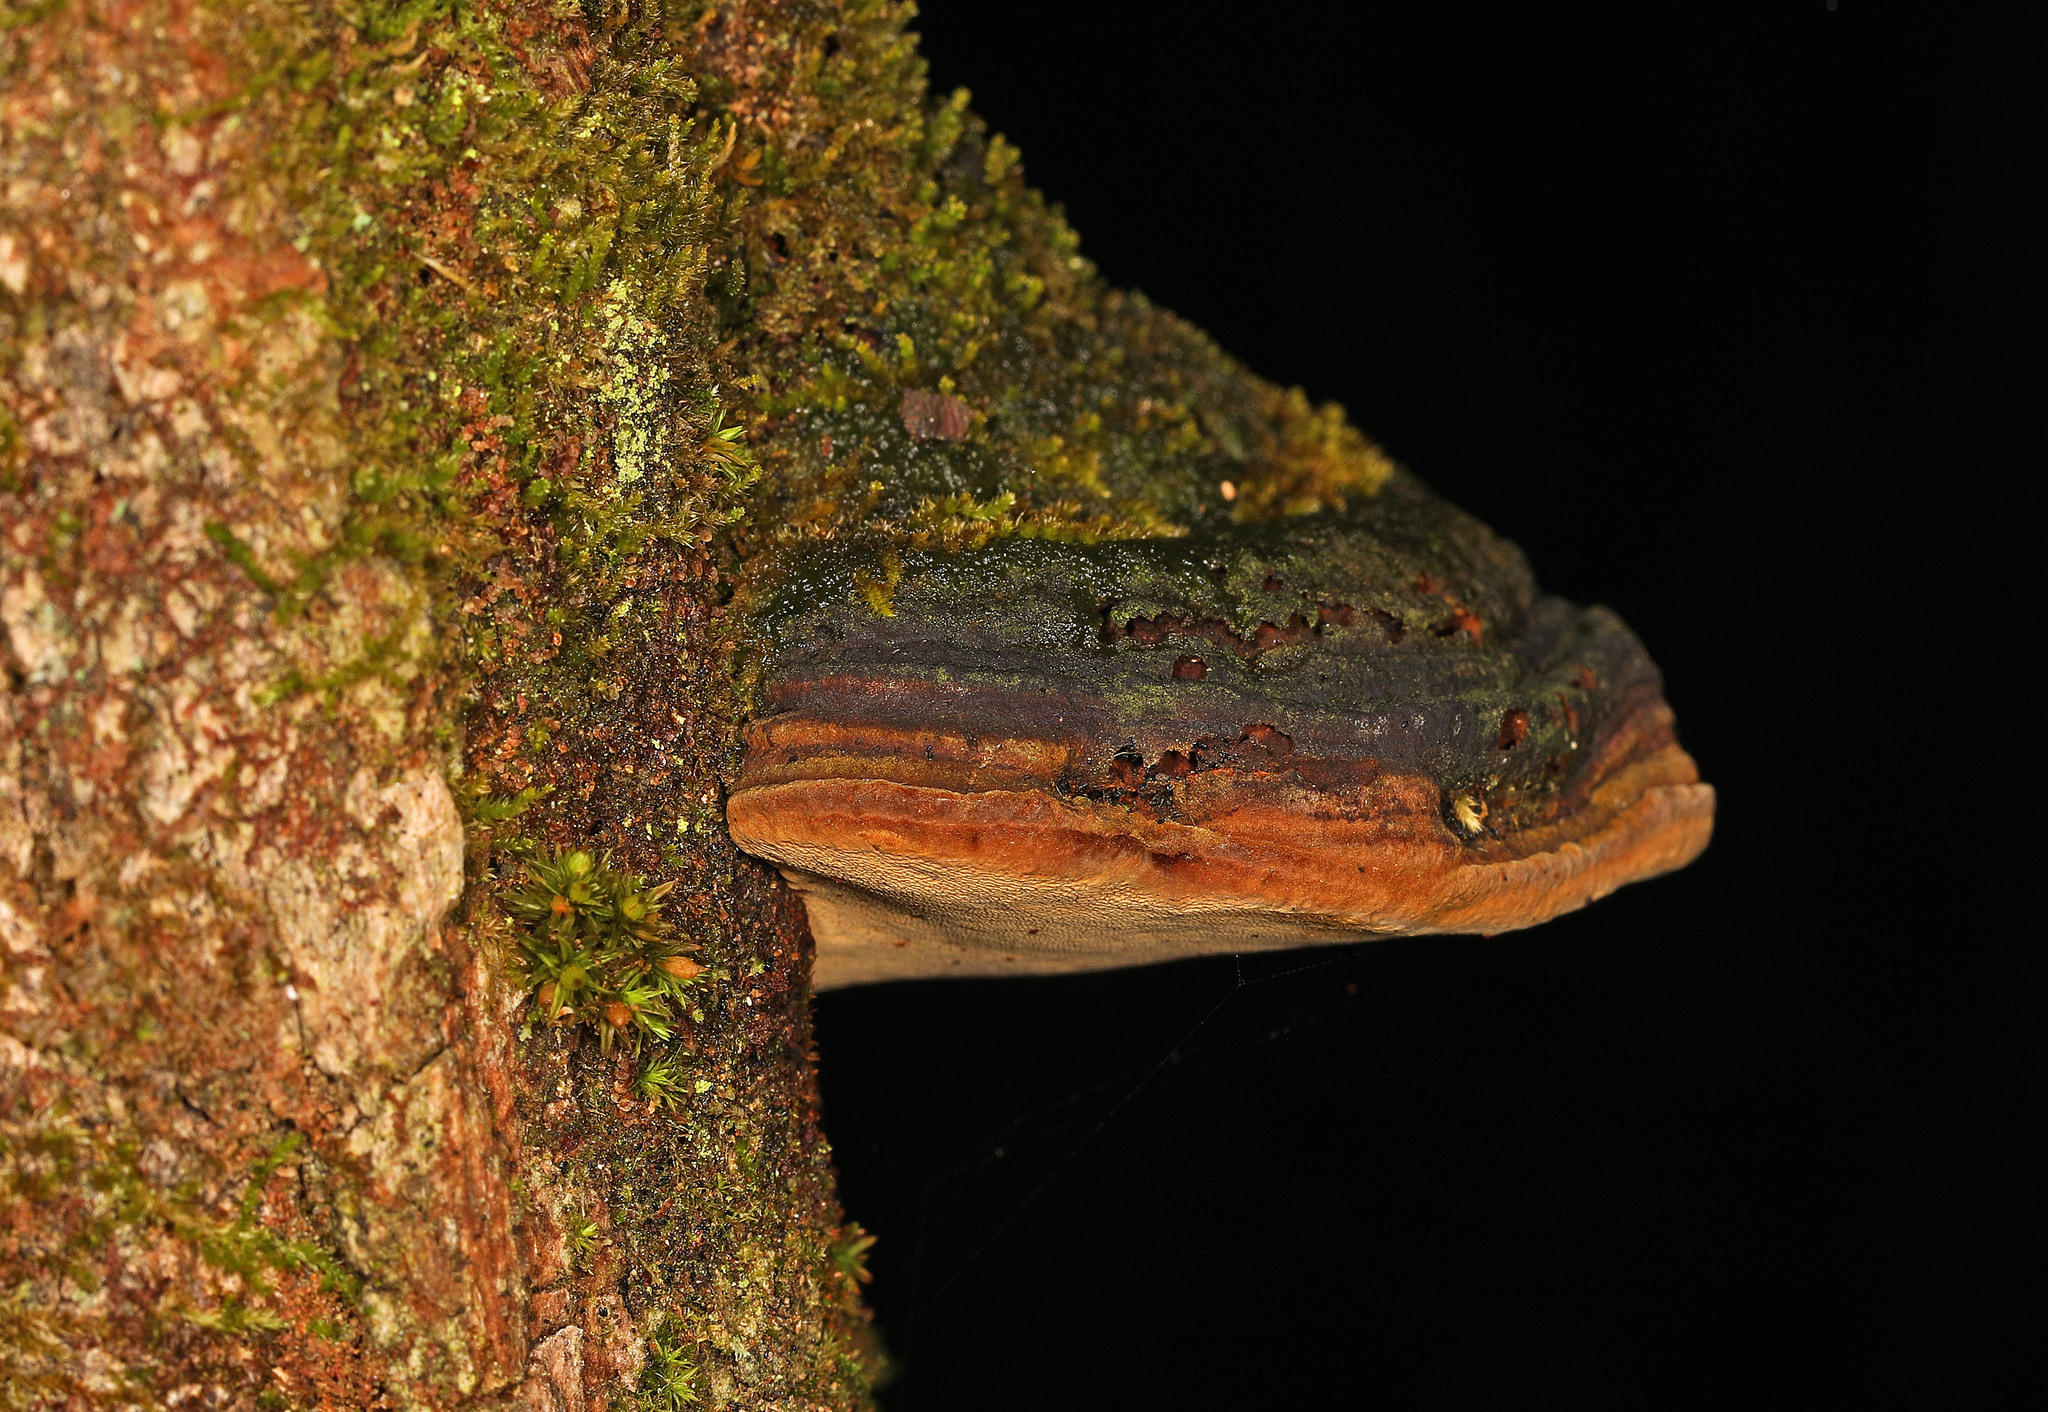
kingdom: Fungi
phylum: Basidiomycota
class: Agaricomycetes
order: Hymenochaetales
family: Hymenochaetaceae
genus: Phellinus
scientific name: Phellinus robiniae
